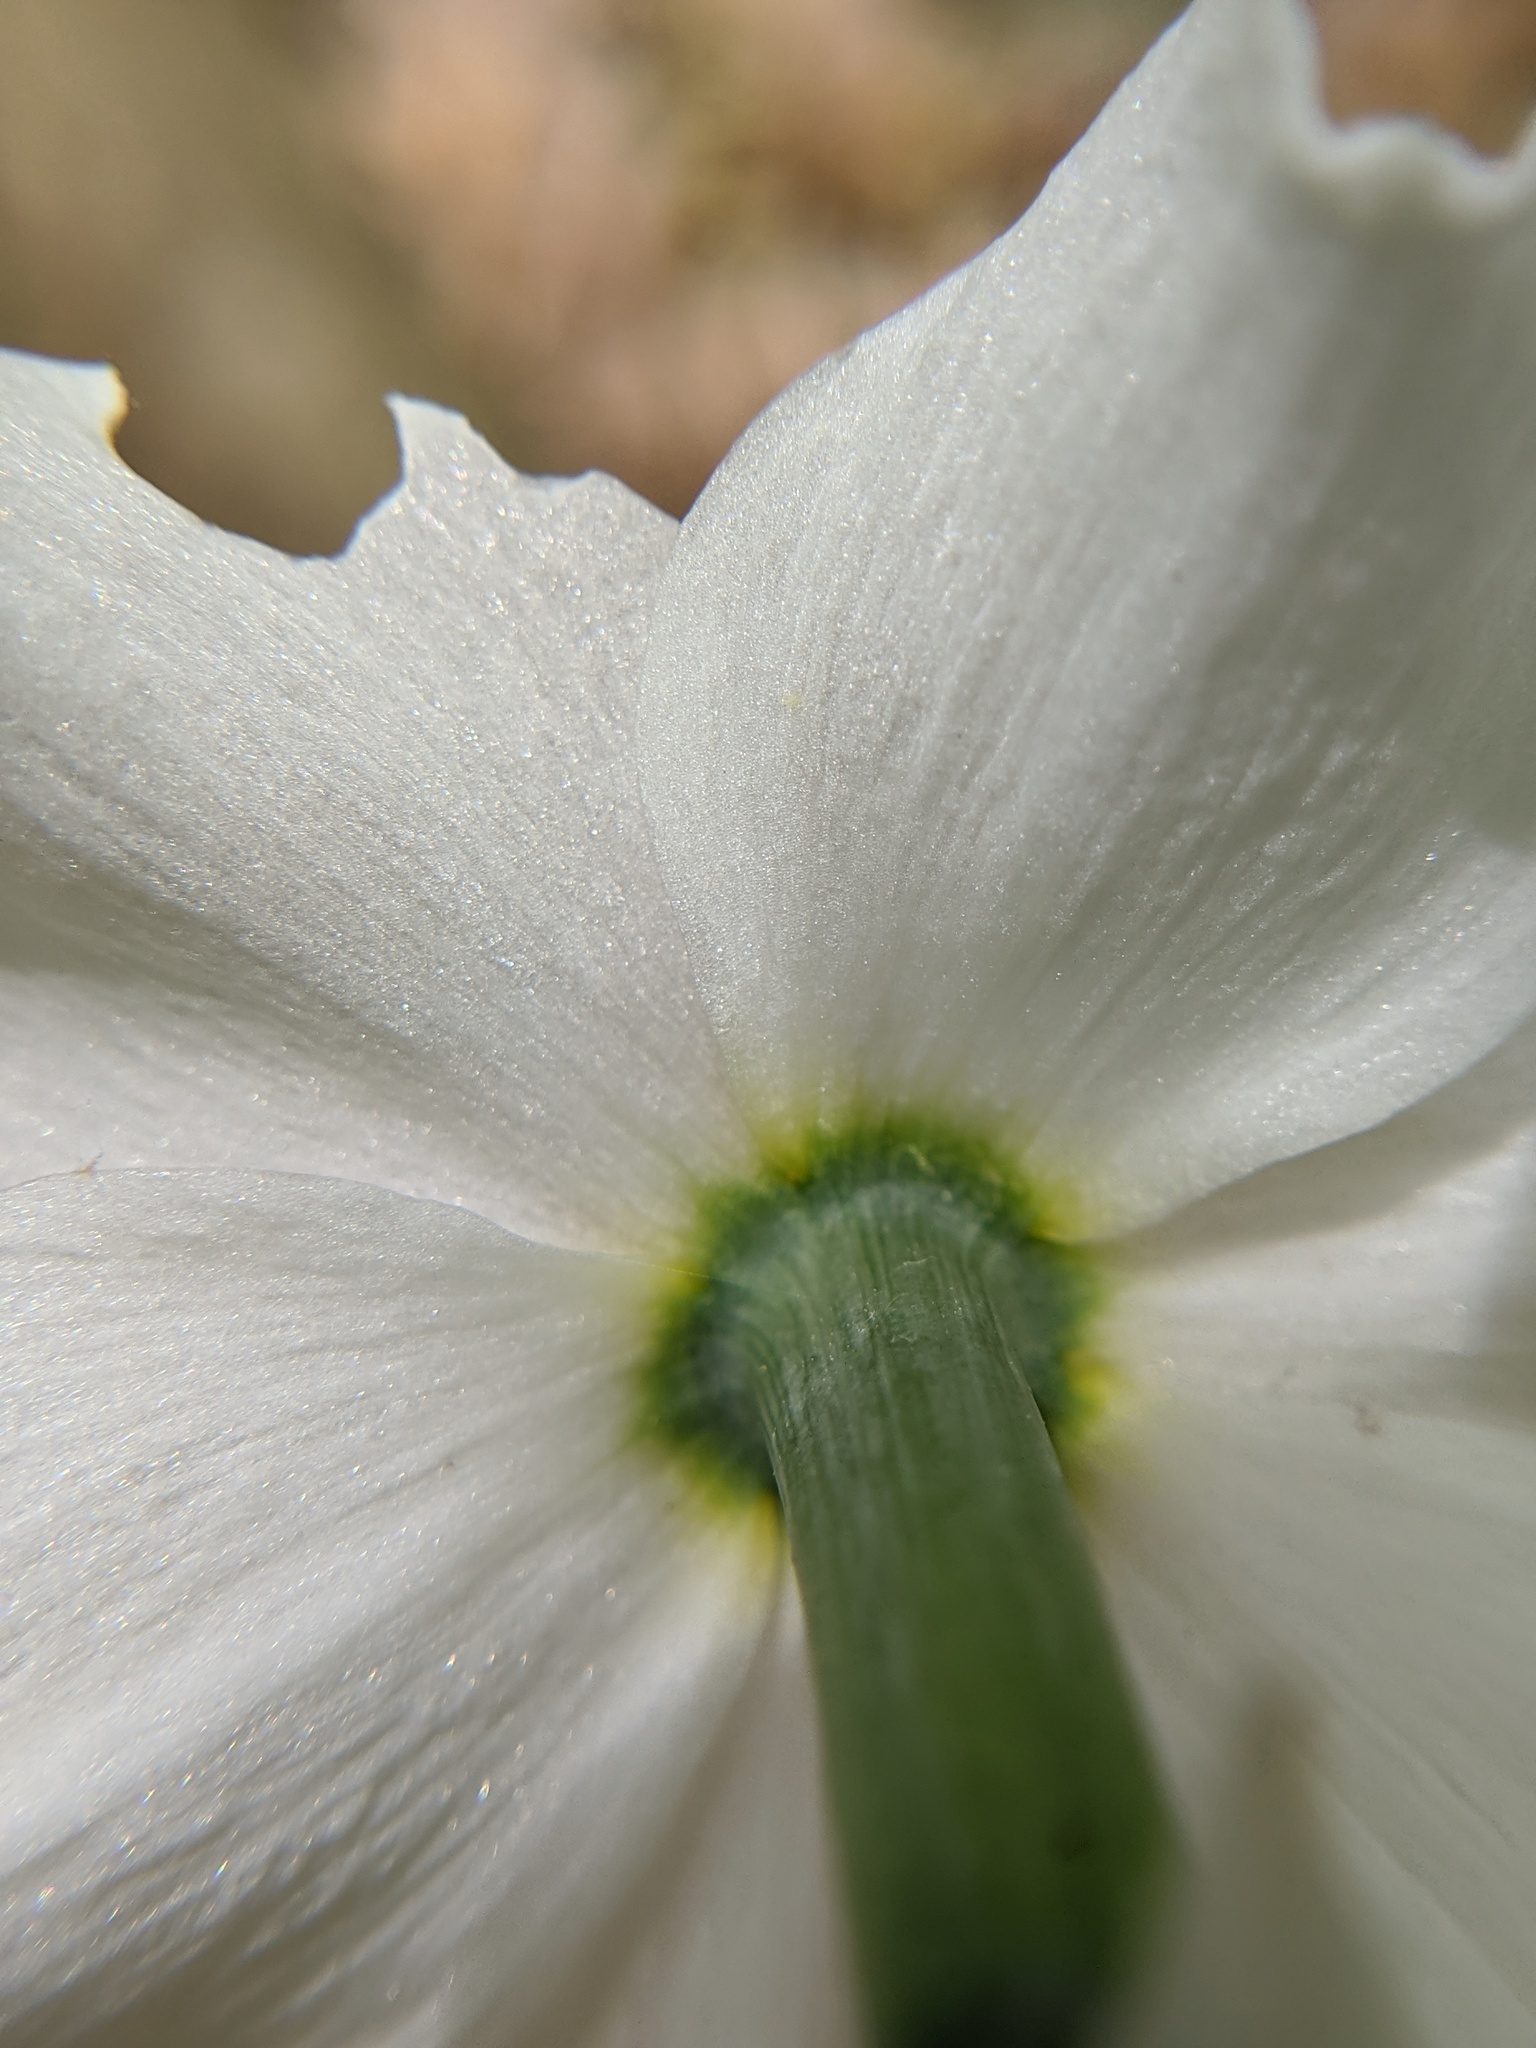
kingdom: Plantae
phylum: Tracheophyta
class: Liliopsida
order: Asparagales
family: Amaryllidaceae
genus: Narcissus
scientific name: Narcissus poeticus
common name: Pheasant's-eye daffodil
